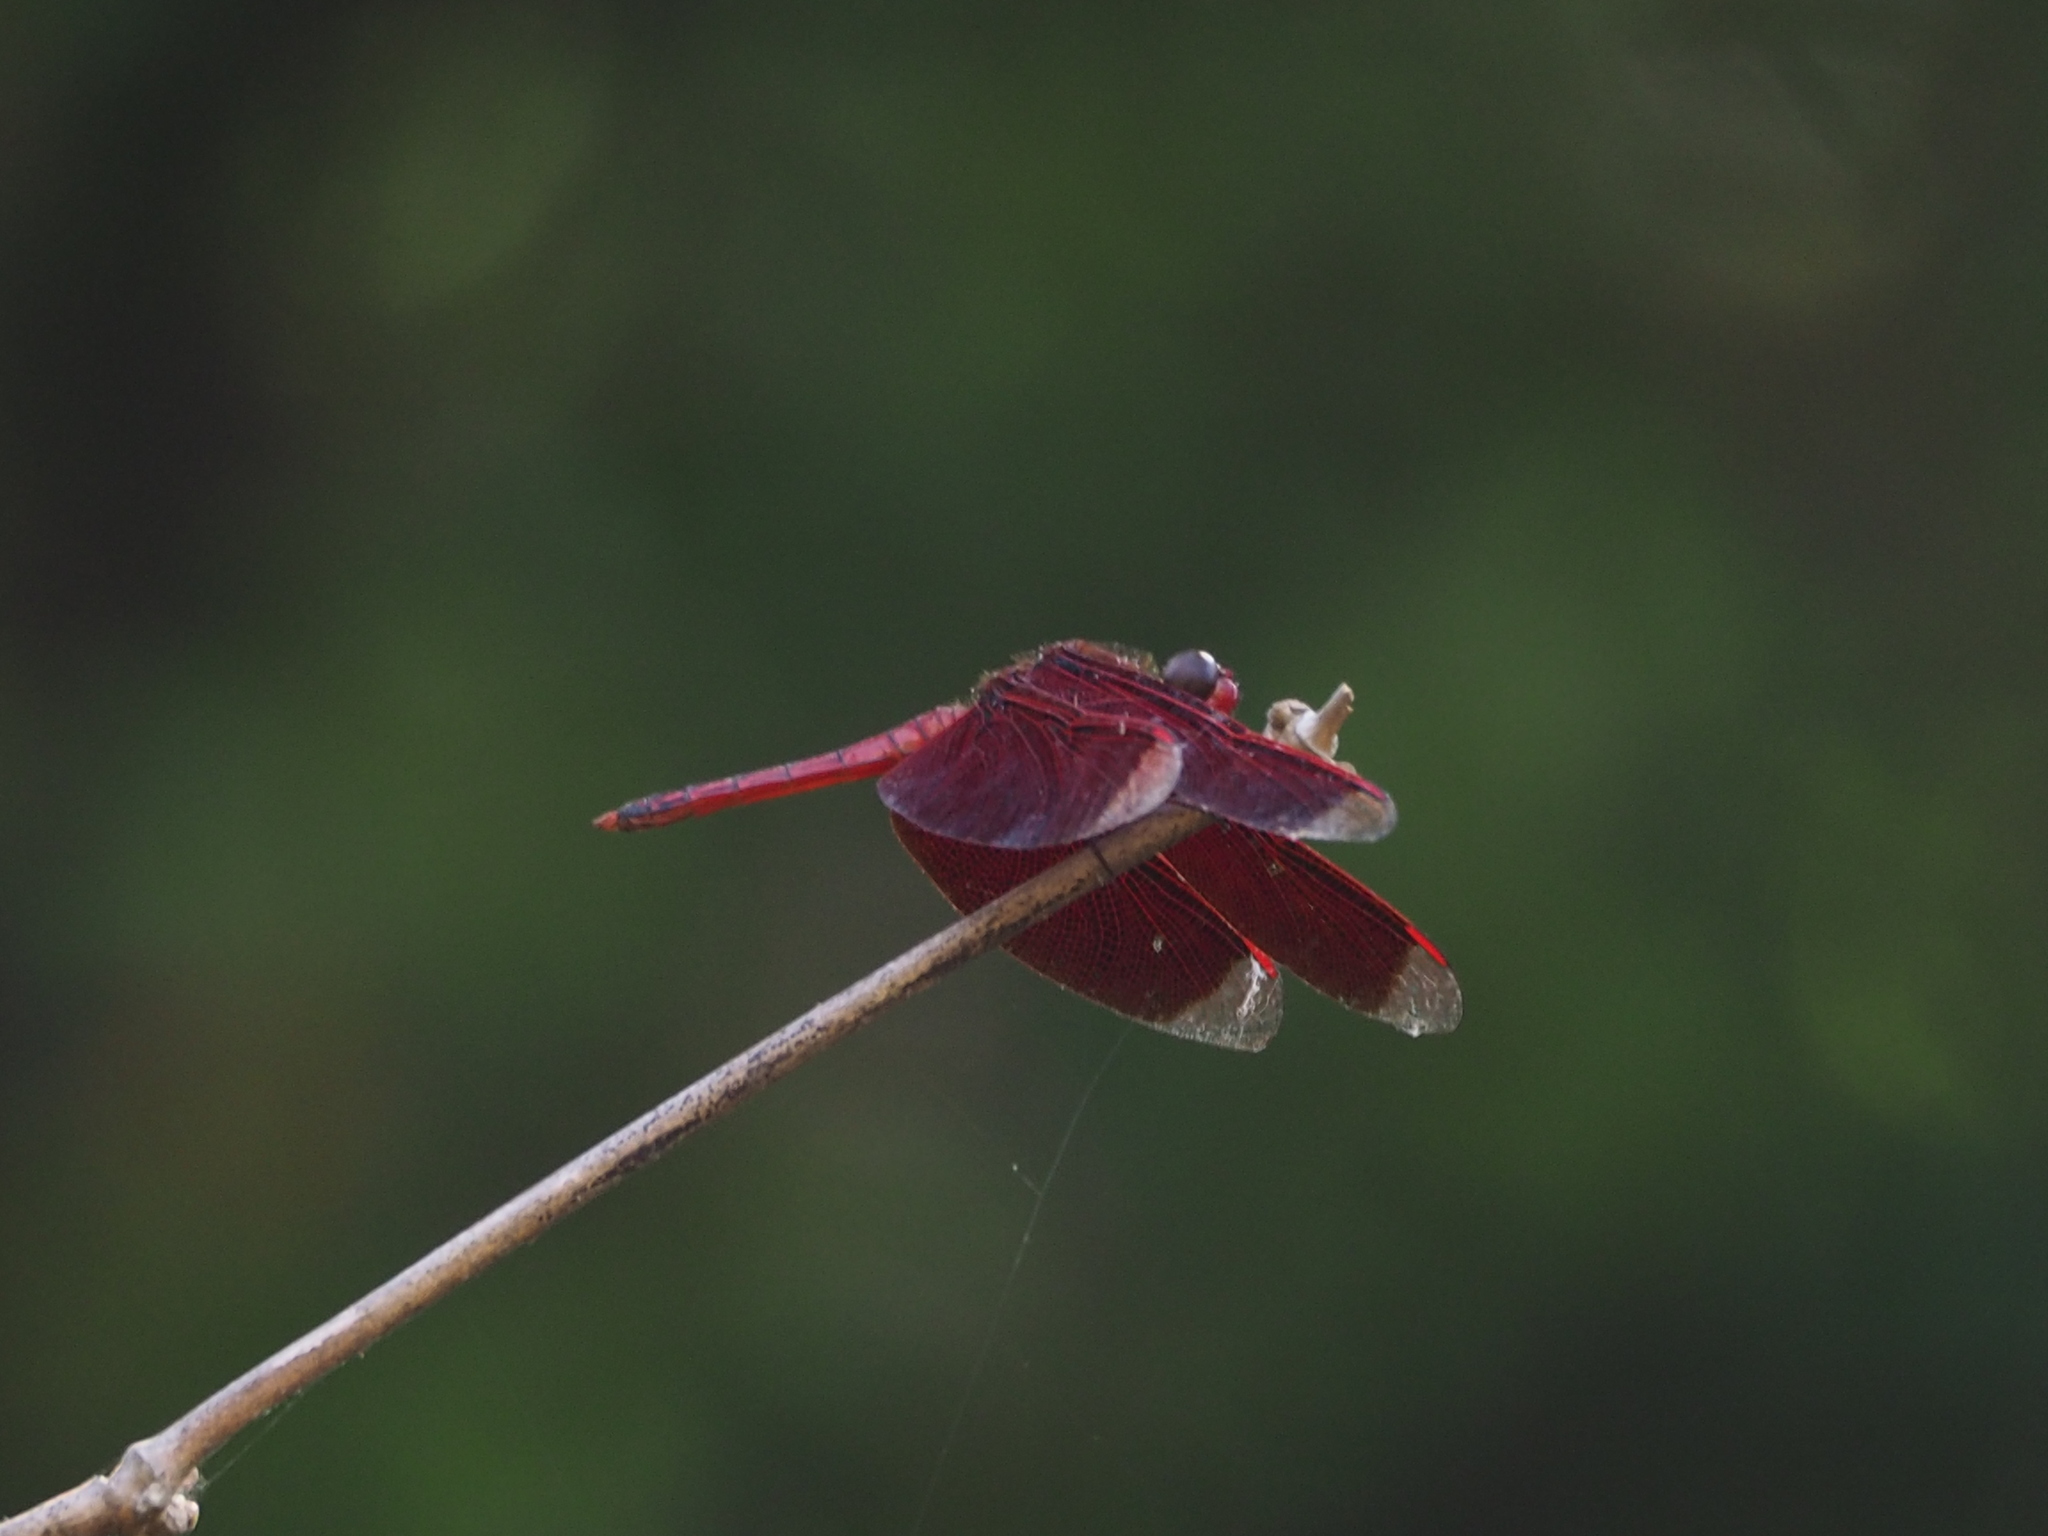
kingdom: Animalia
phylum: Arthropoda
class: Insecta
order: Odonata
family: Libellulidae
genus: Neurothemis
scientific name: Neurothemis taiwanensis
